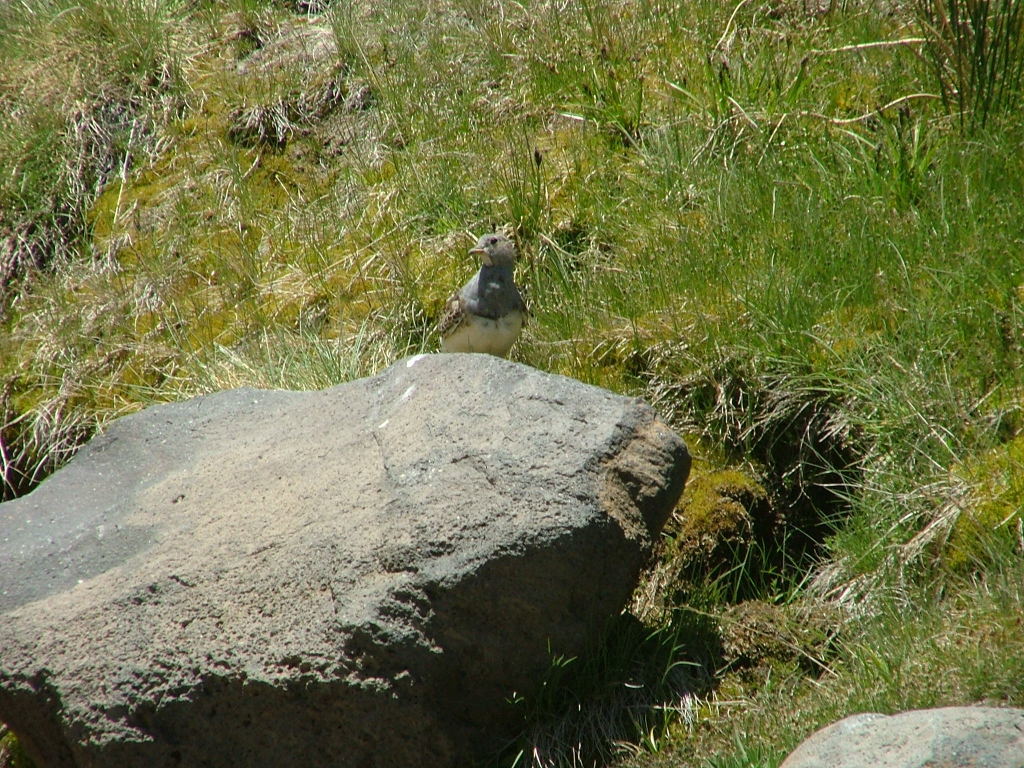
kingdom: Animalia
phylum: Chordata
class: Aves
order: Charadriiformes
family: Thinocoridae
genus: Thinocorus
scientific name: Thinocorus orbignyianus
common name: Grey-breasted seedsnipe
